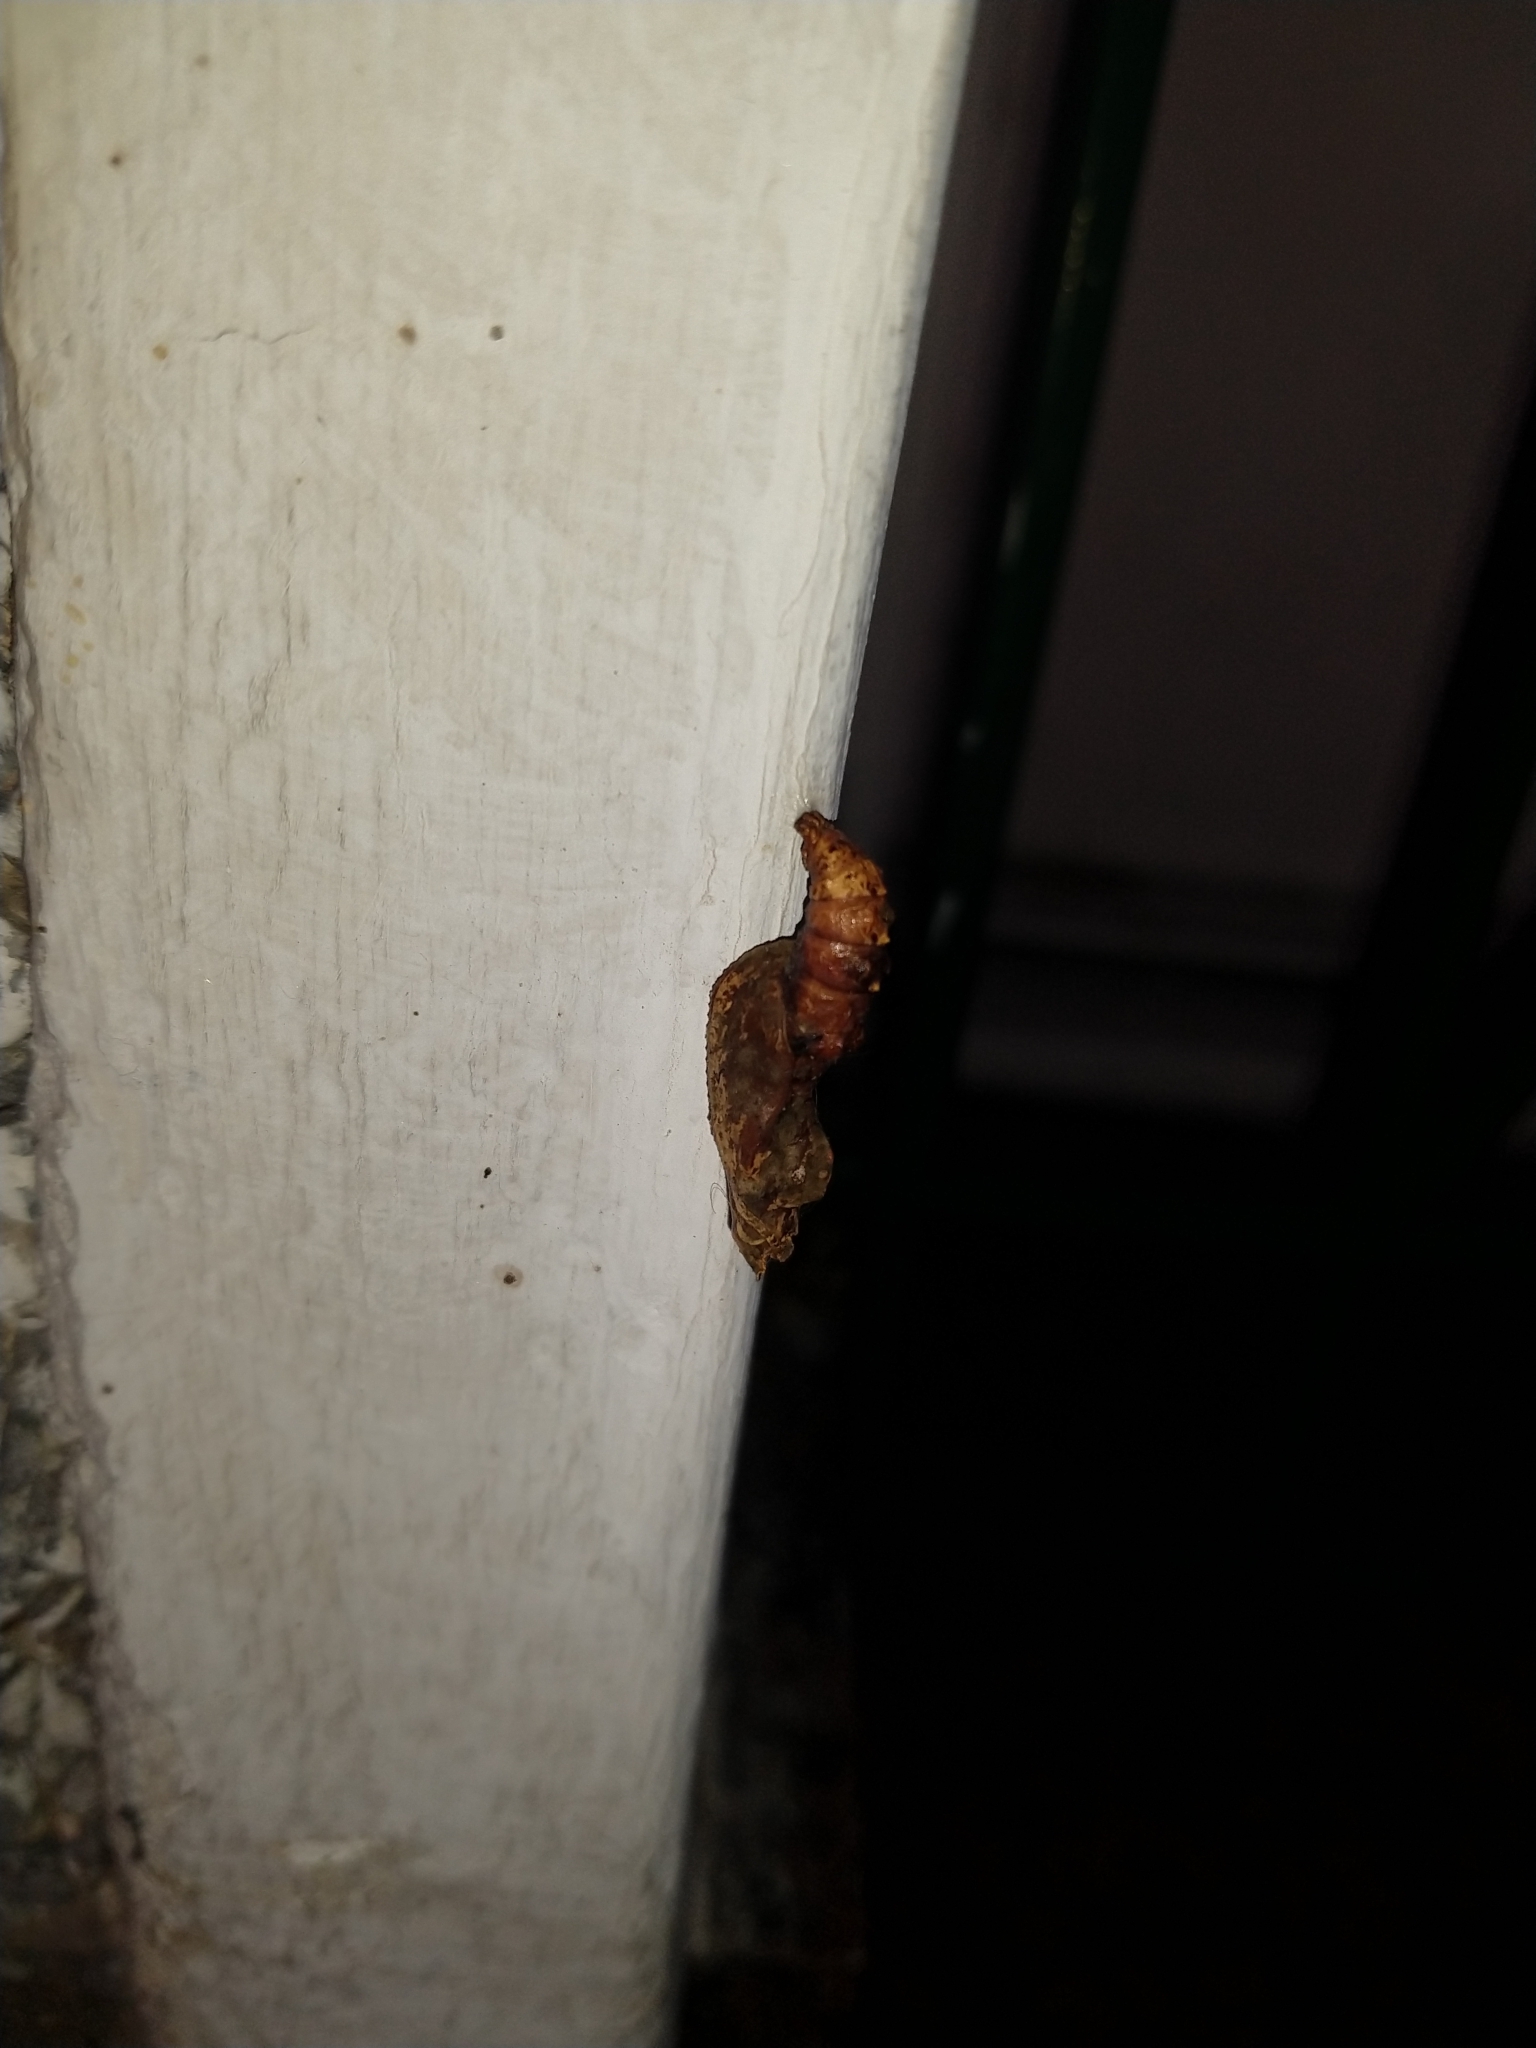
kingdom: Animalia
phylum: Arthropoda
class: Insecta
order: Lepidoptera
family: Nymphalidae
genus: Dione
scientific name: Dione vanillae
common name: Gulf fritillary
